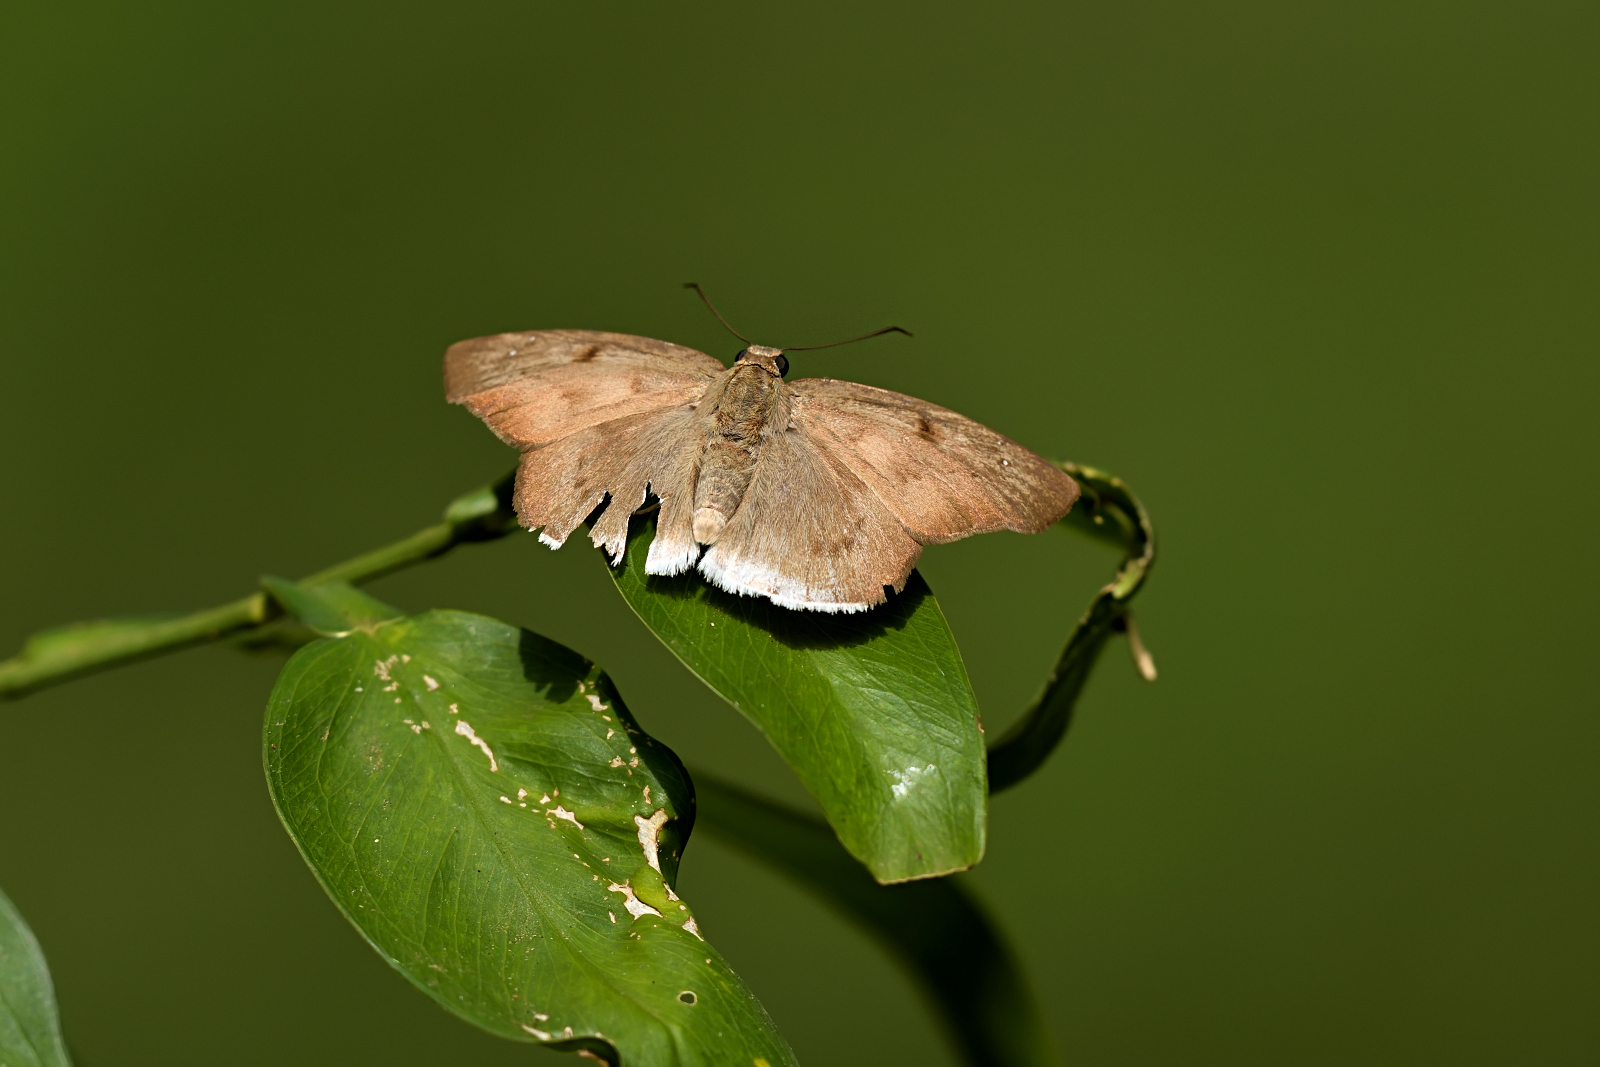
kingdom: Animalia
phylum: Arthropoda
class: Insecta
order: Lepidoptera
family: Hesperiidae
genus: Tagiades
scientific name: Tagiades japetus
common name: Pied flat
